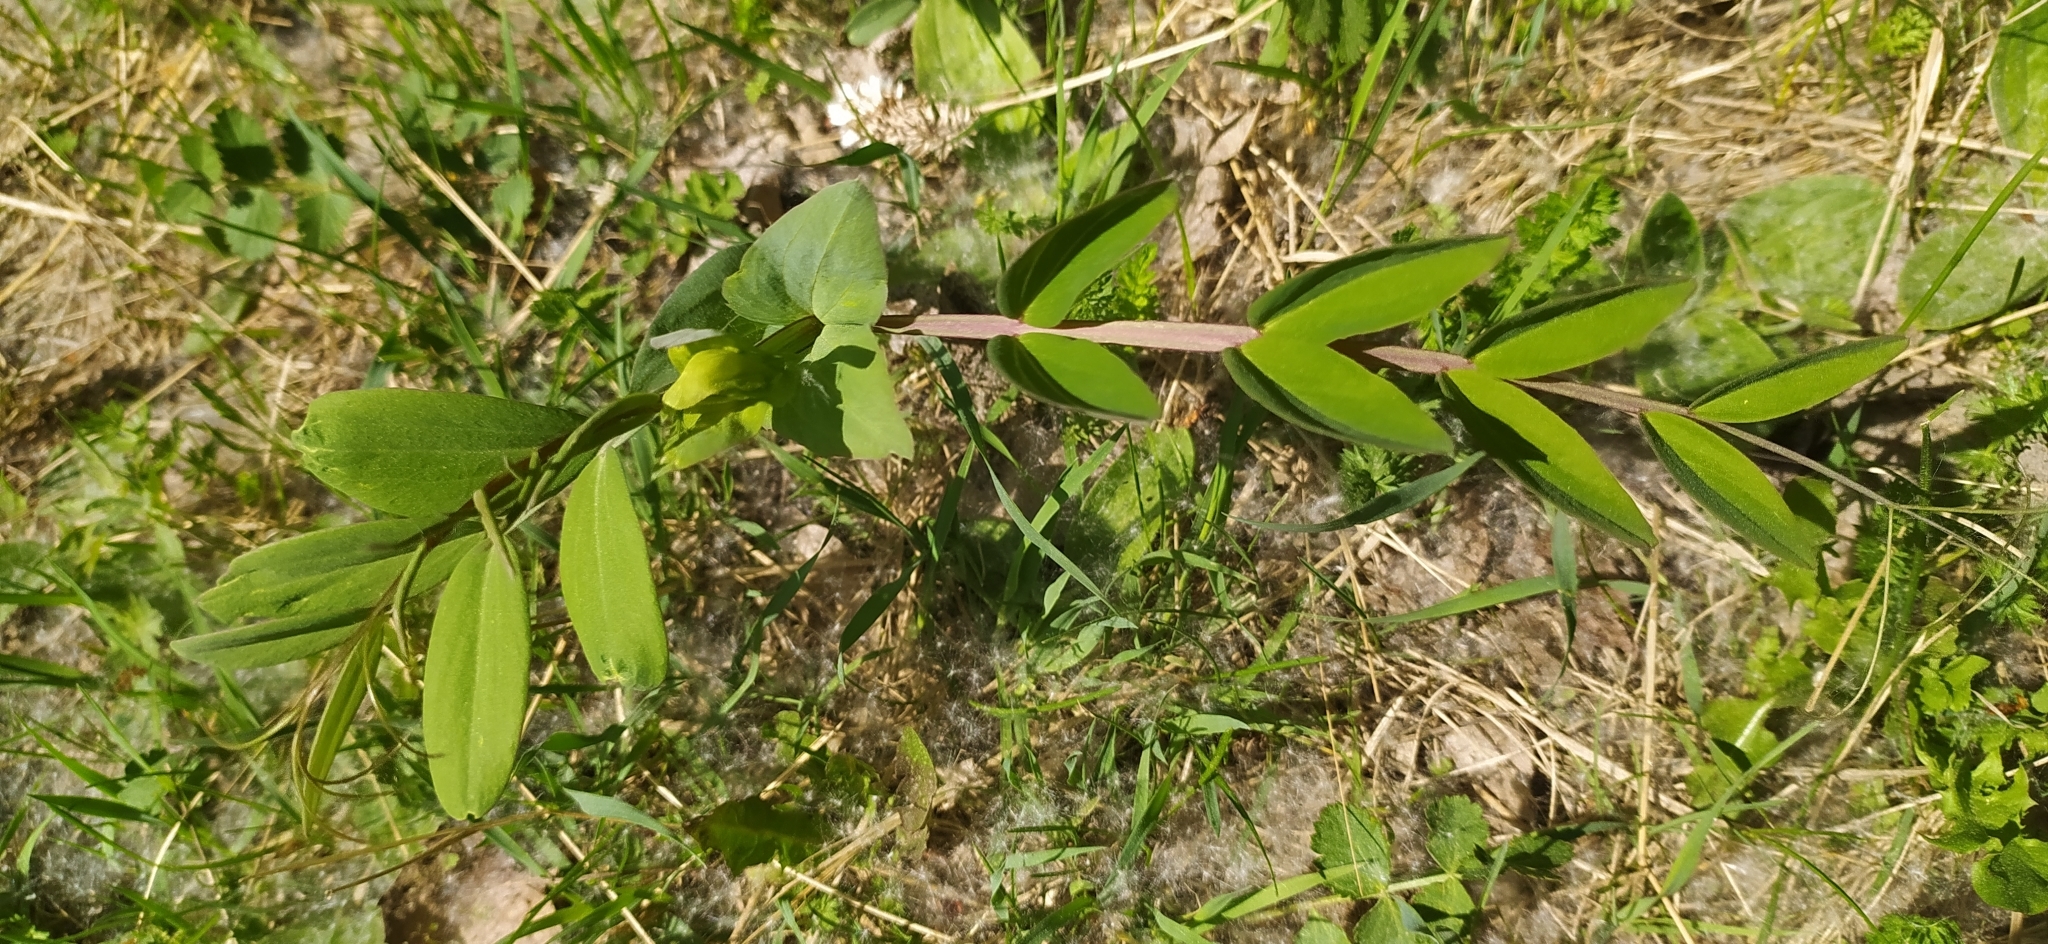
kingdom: Plantae
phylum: Tracheophyta
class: Magnoliopsida
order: Fabales
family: Fabaceae
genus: Lathyrus
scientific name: Lathyrus pisiformis
